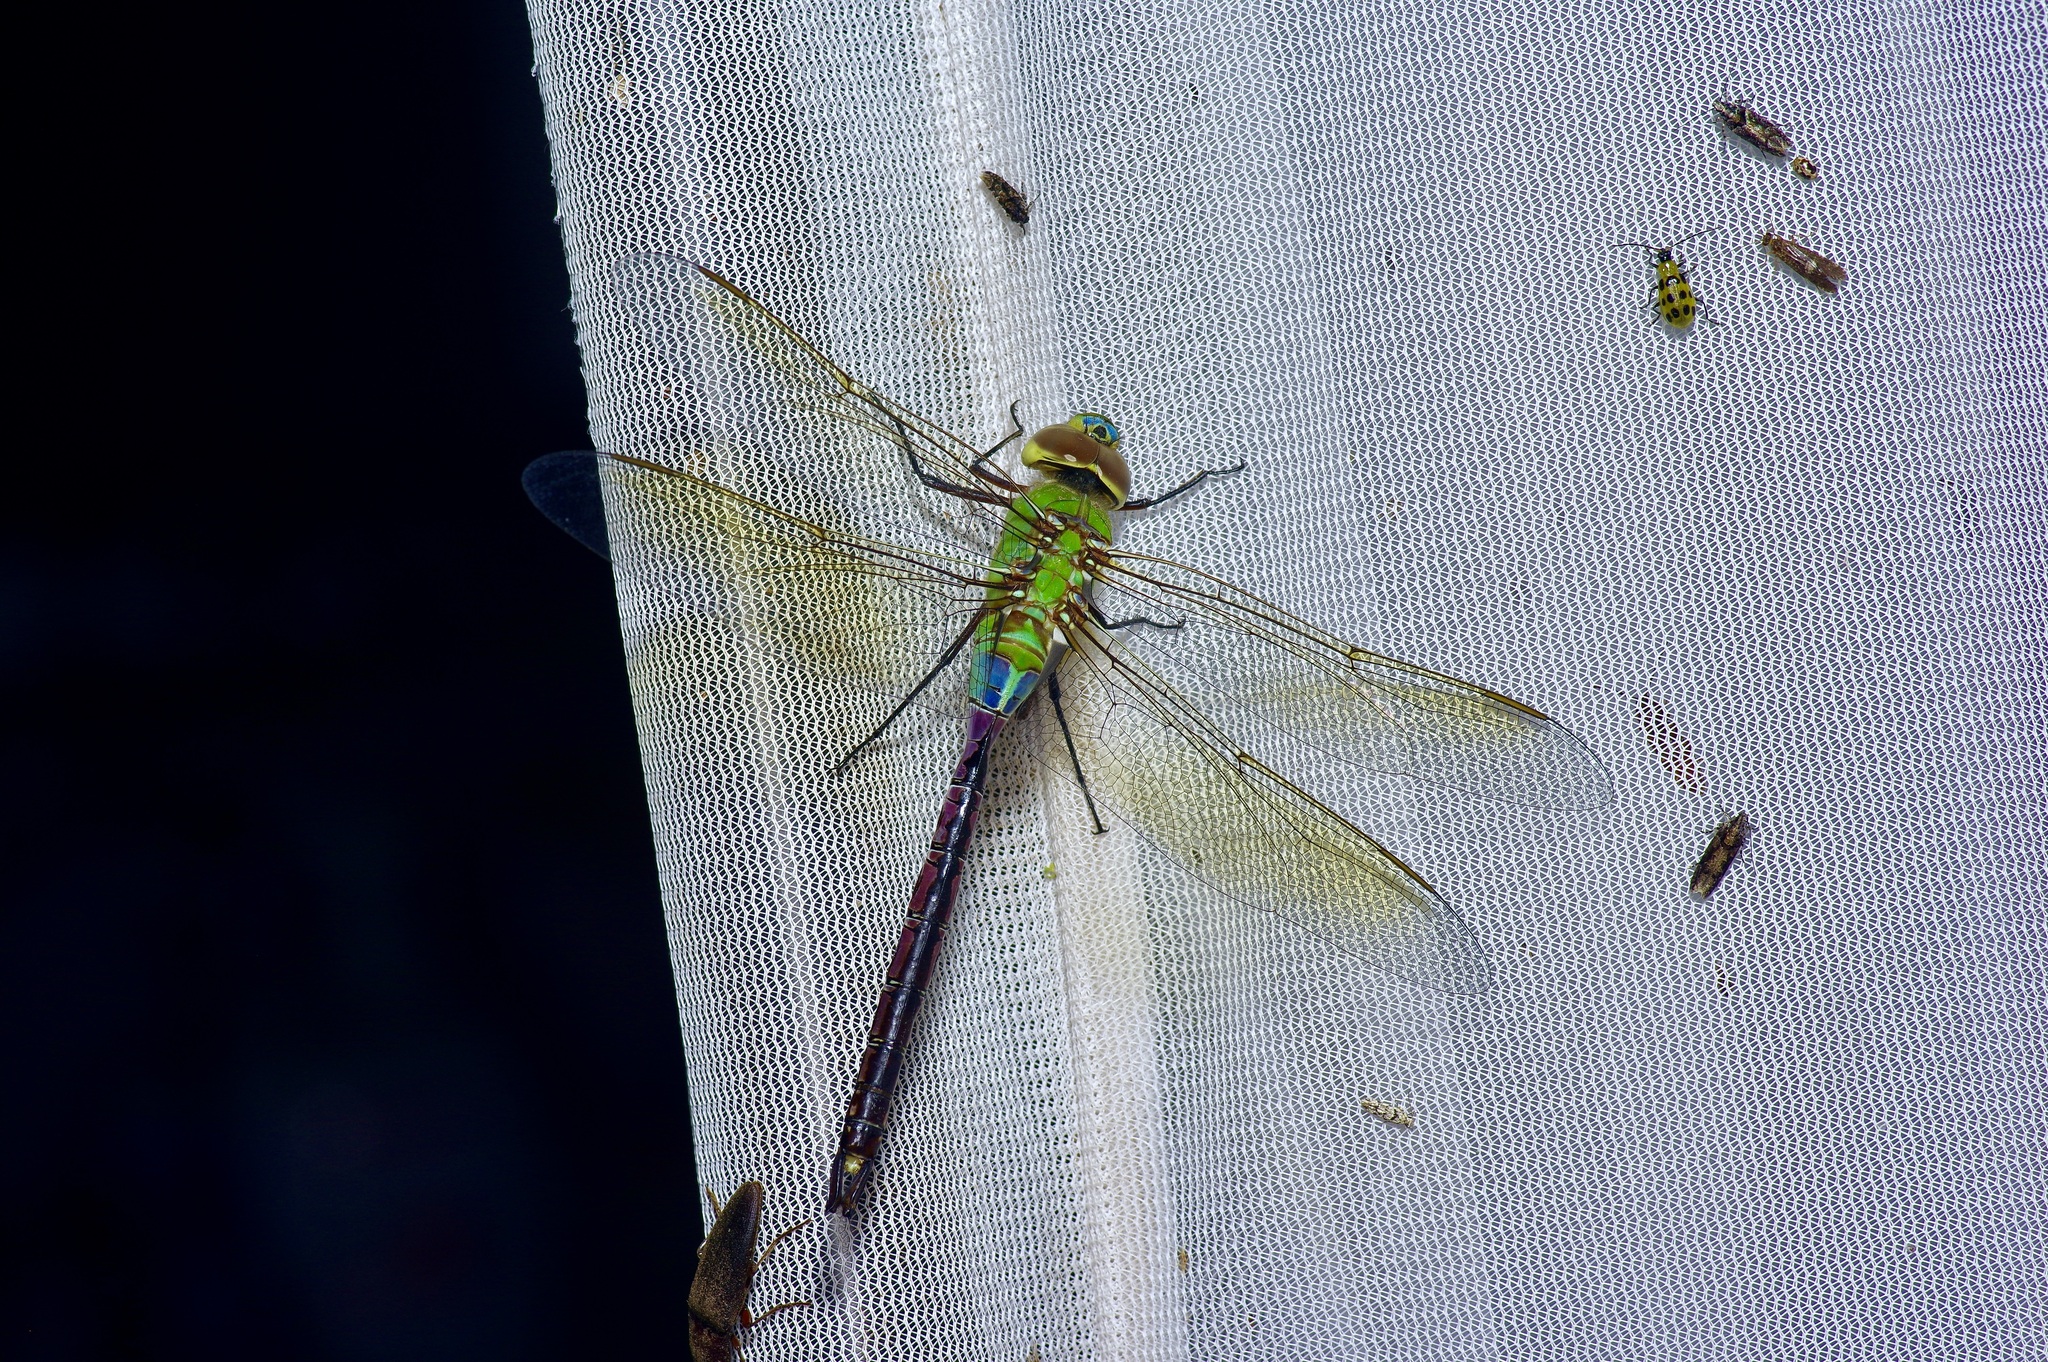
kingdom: Animalia
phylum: Arthropoda
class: Insecta
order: Odonata
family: Aeshnidae
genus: Anax
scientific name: Anax junius
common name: Common green darner
